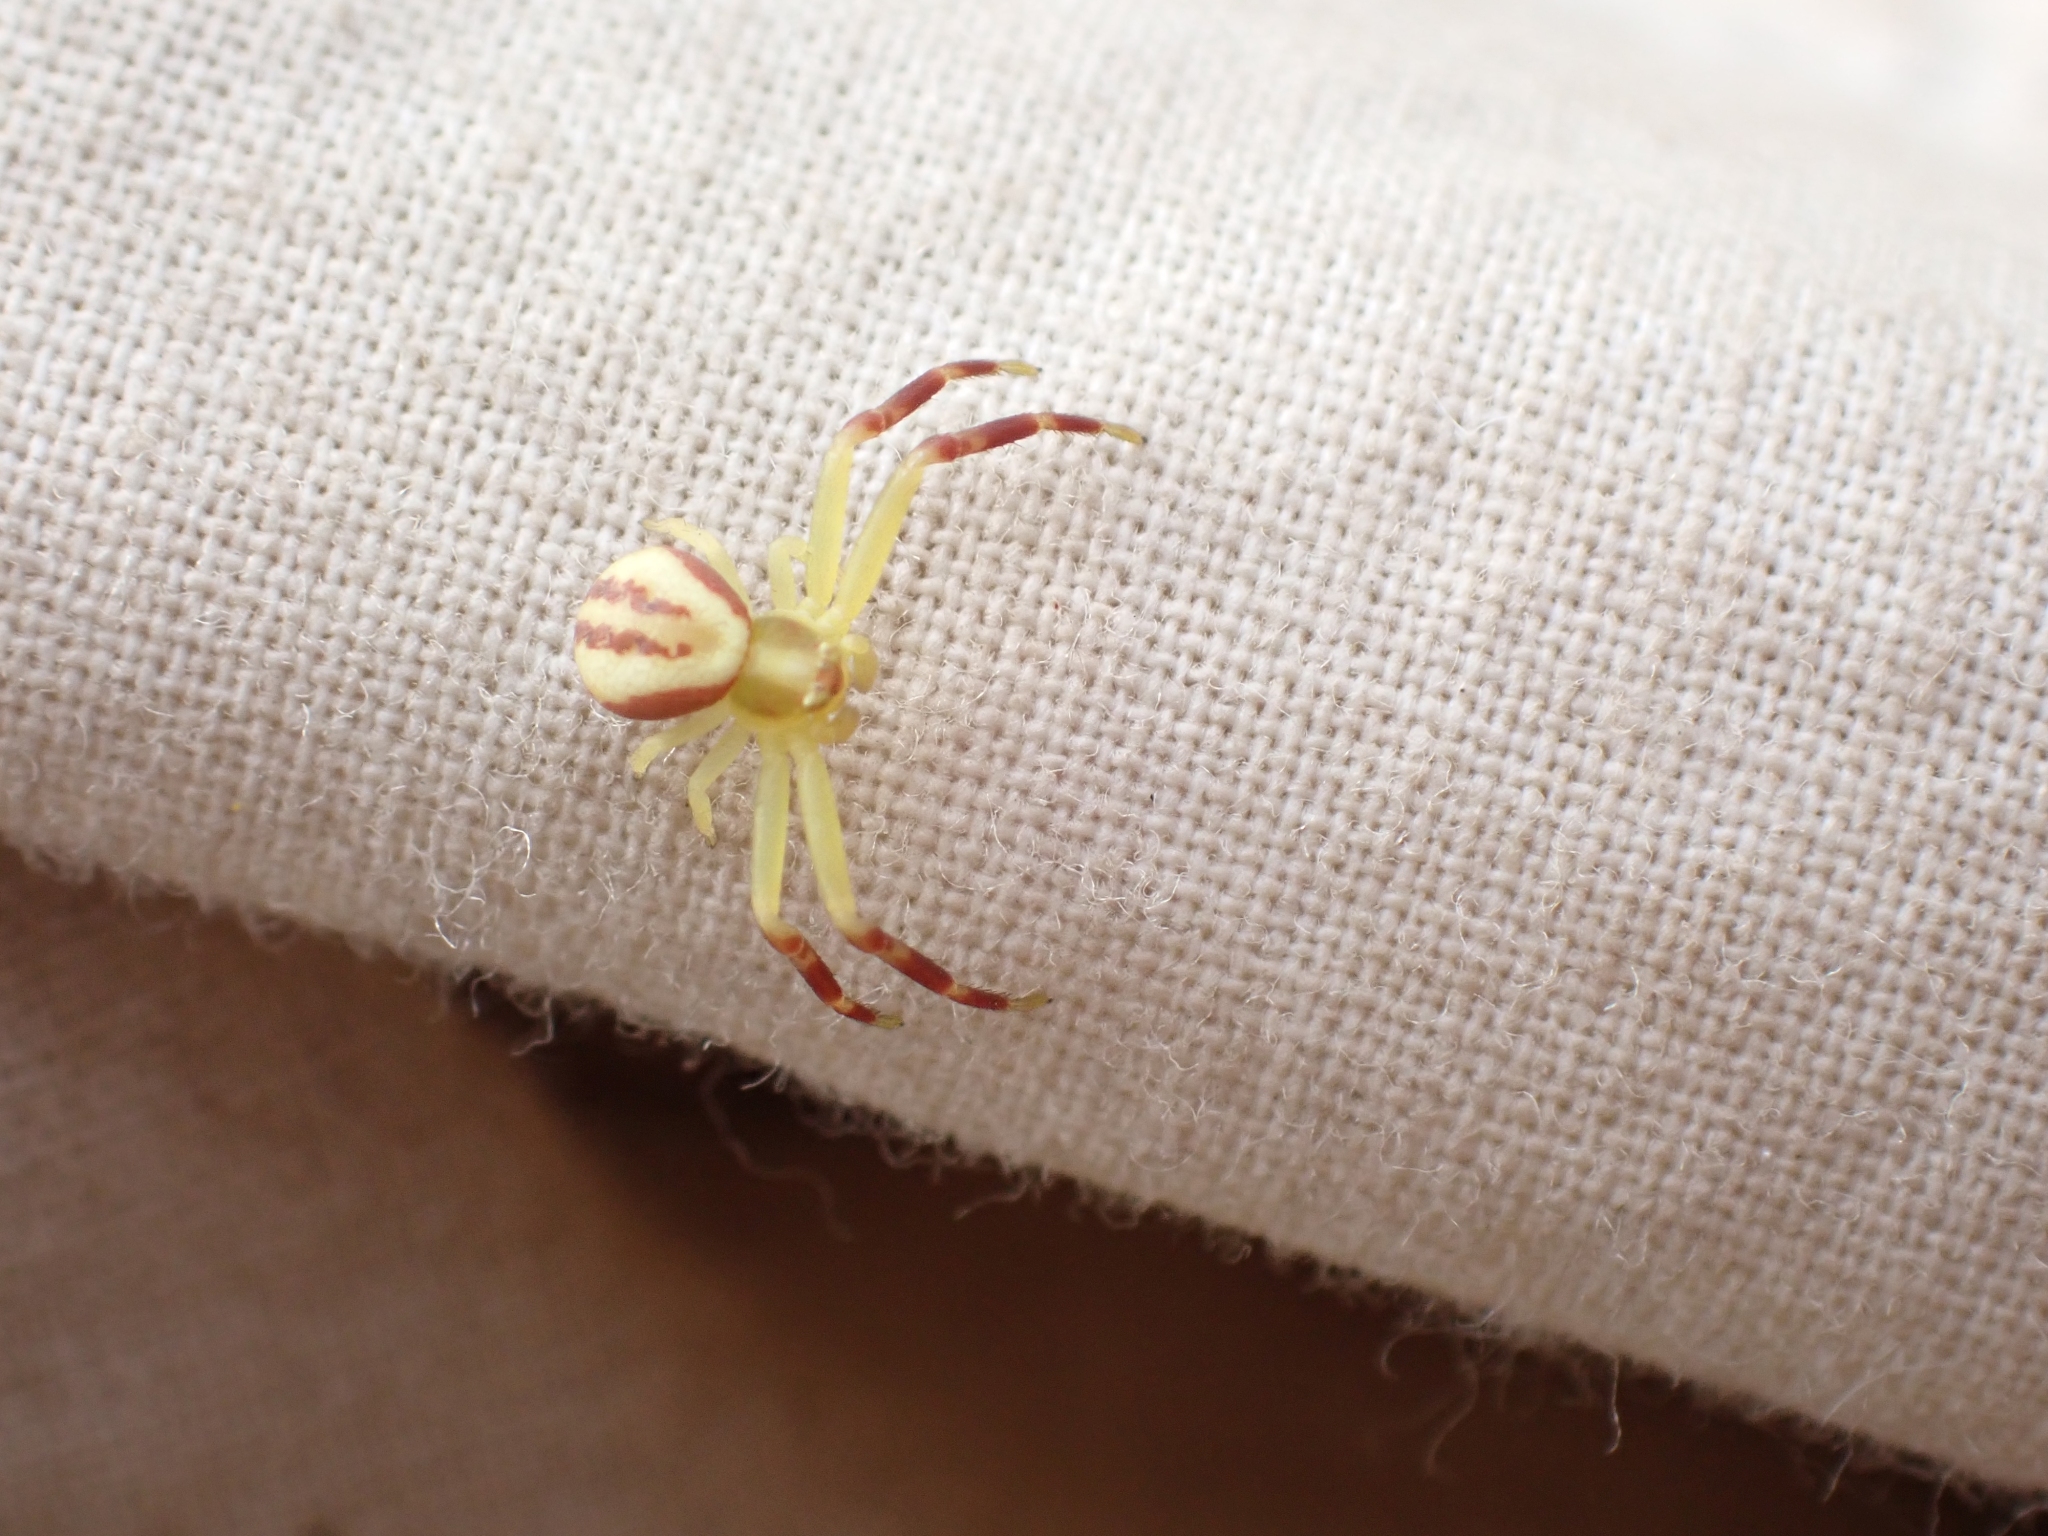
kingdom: Animalia
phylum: Arthropoda
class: Arachnida
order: Araneae
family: Thomisidae
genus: Misumena
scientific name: Misumena vatia
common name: Goldenrod crab spider
